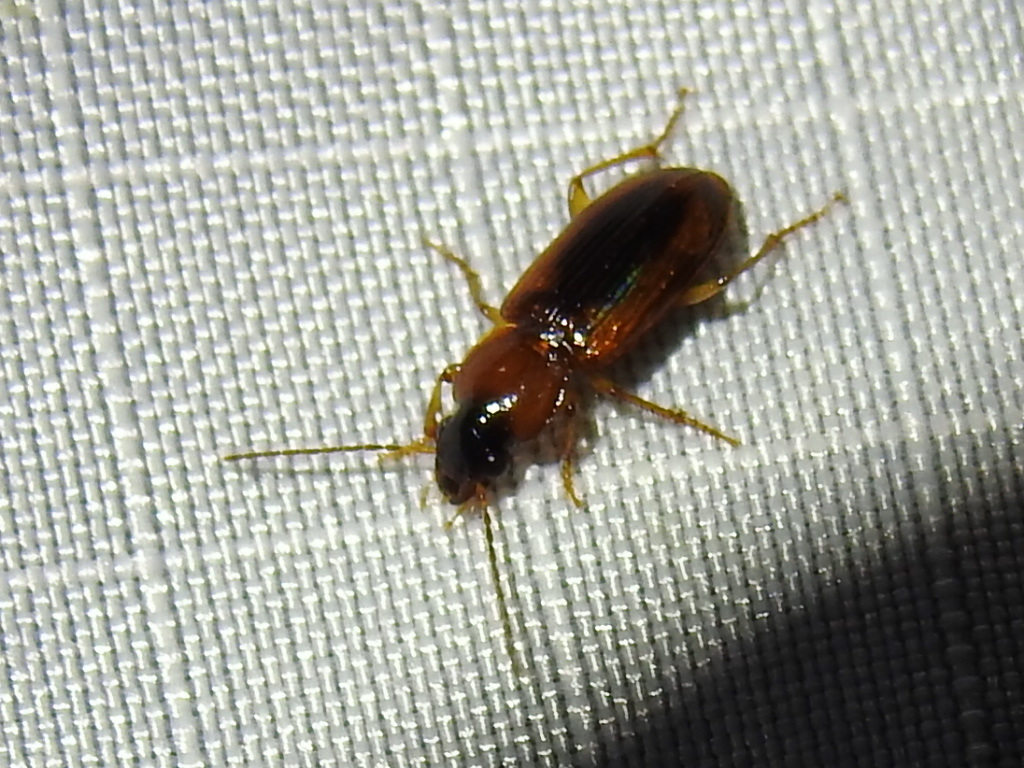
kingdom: Animalia
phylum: Arthropoda
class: Insecta
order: Coleoptera
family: Carabidae
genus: Stenolophus
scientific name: Stenolophus dissimilis
